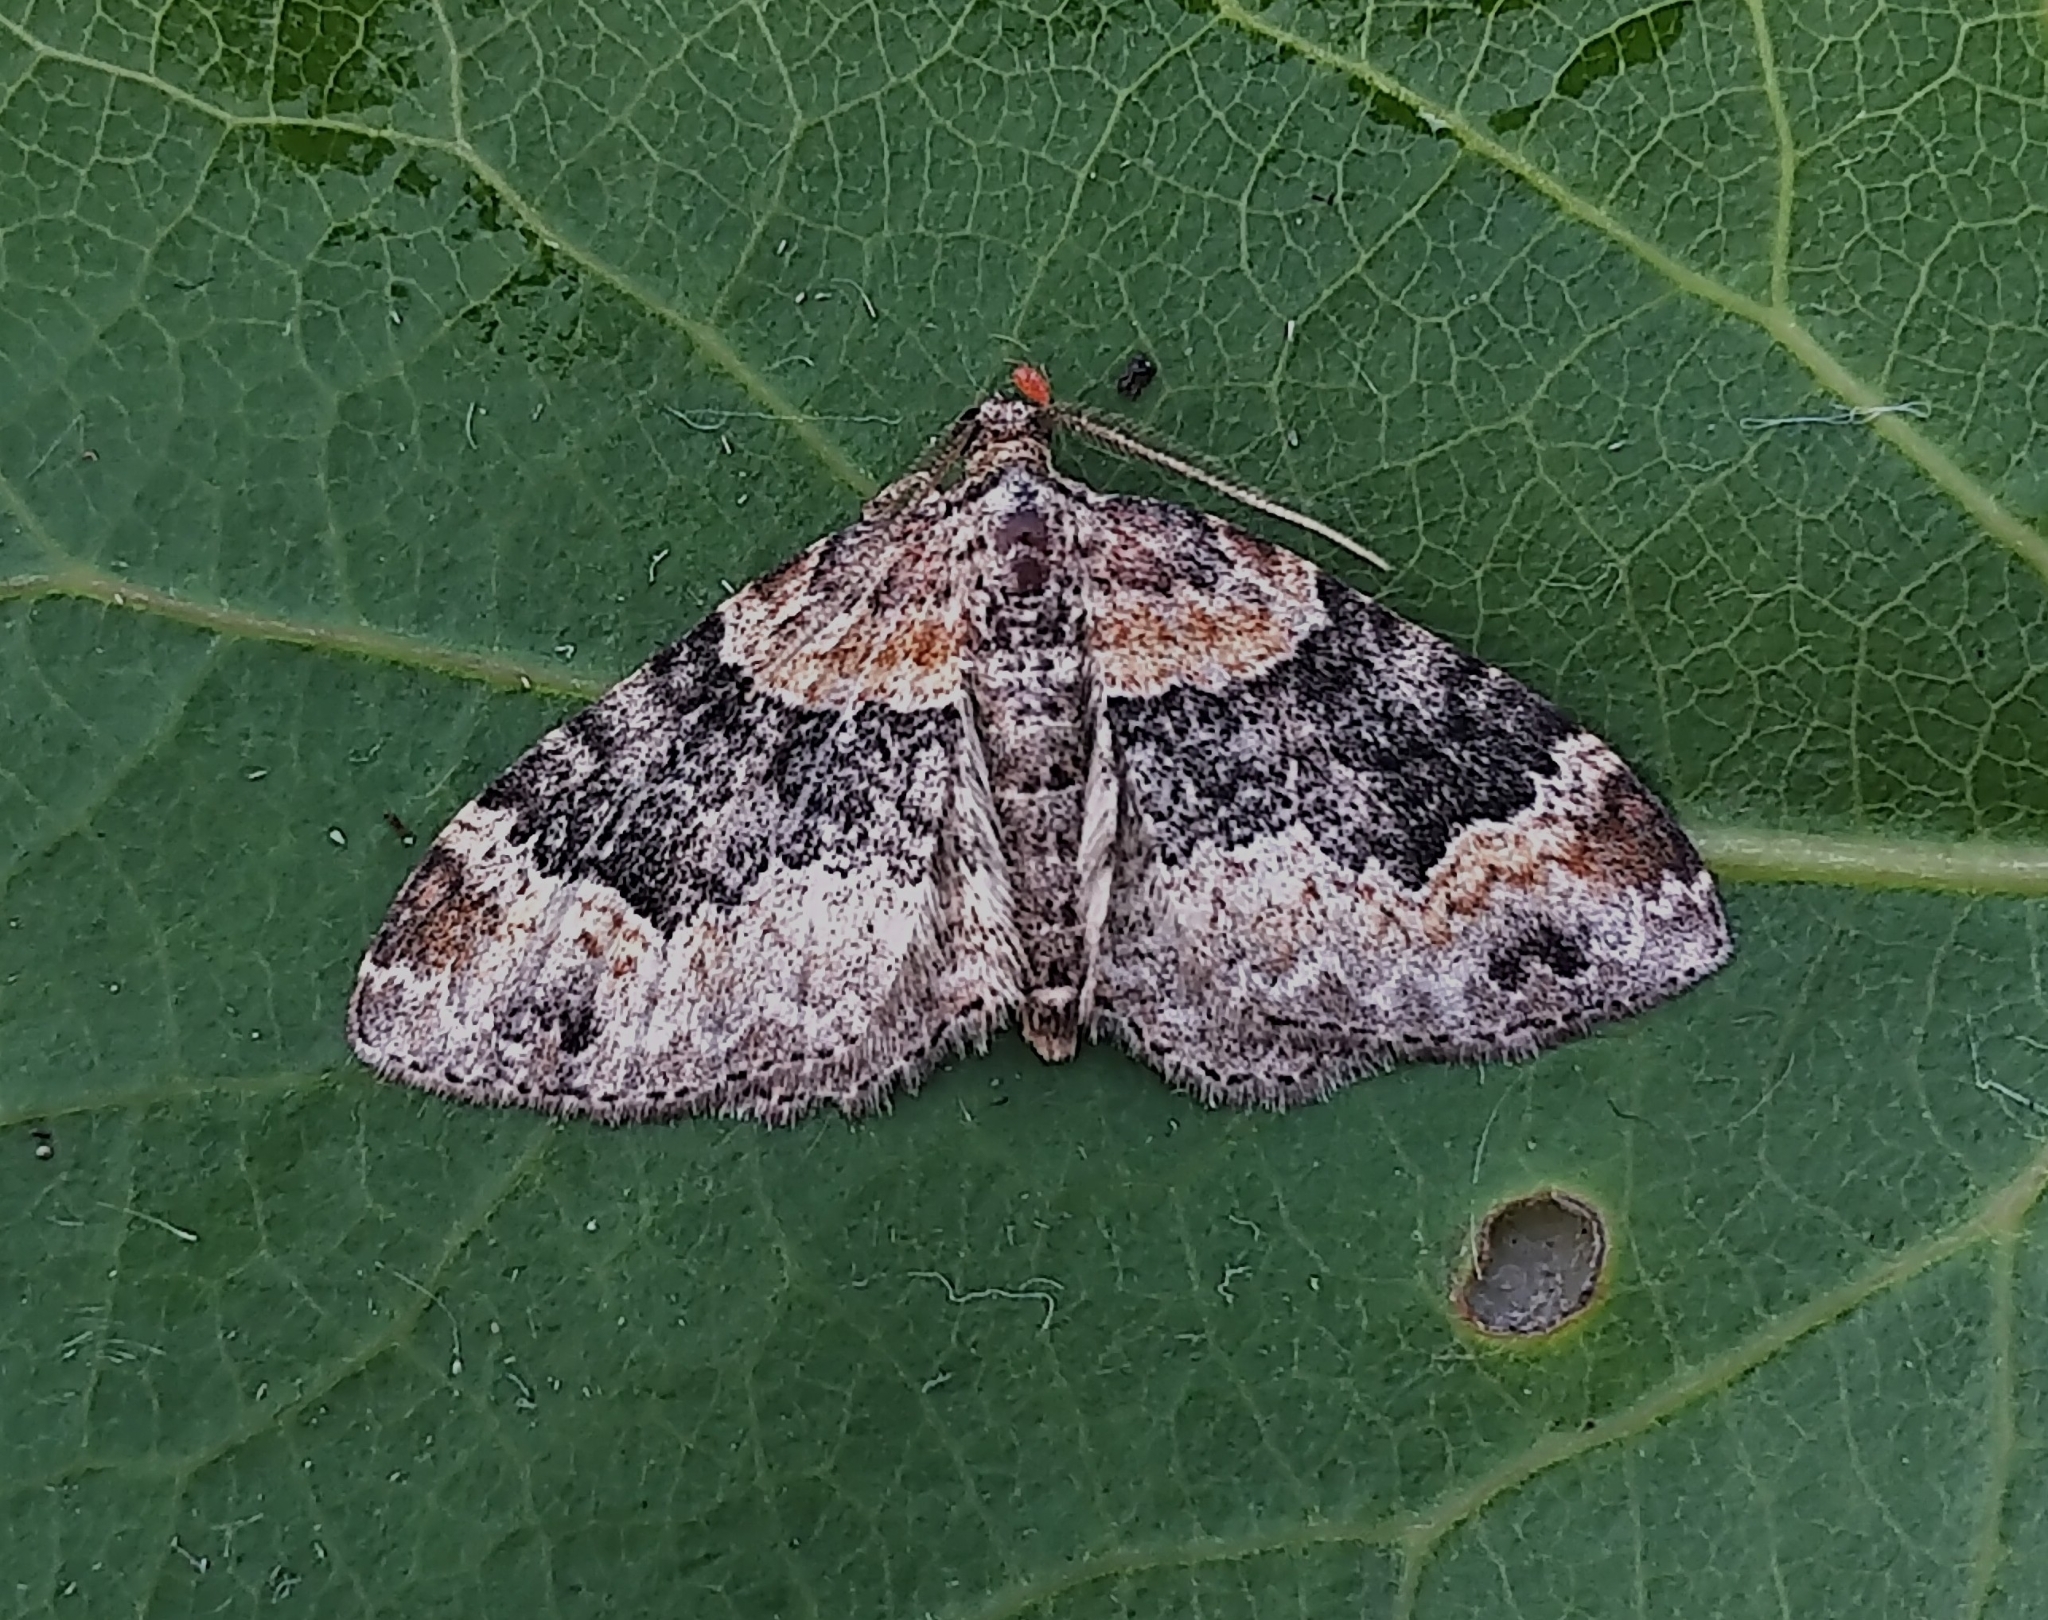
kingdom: Animalia
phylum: Arthropoda
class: Insecta
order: Lepidoptera
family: Geometridae
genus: Xanthorhoe
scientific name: Xanthorhoe ferrugata
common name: Dark-barred twin-spot carpet
